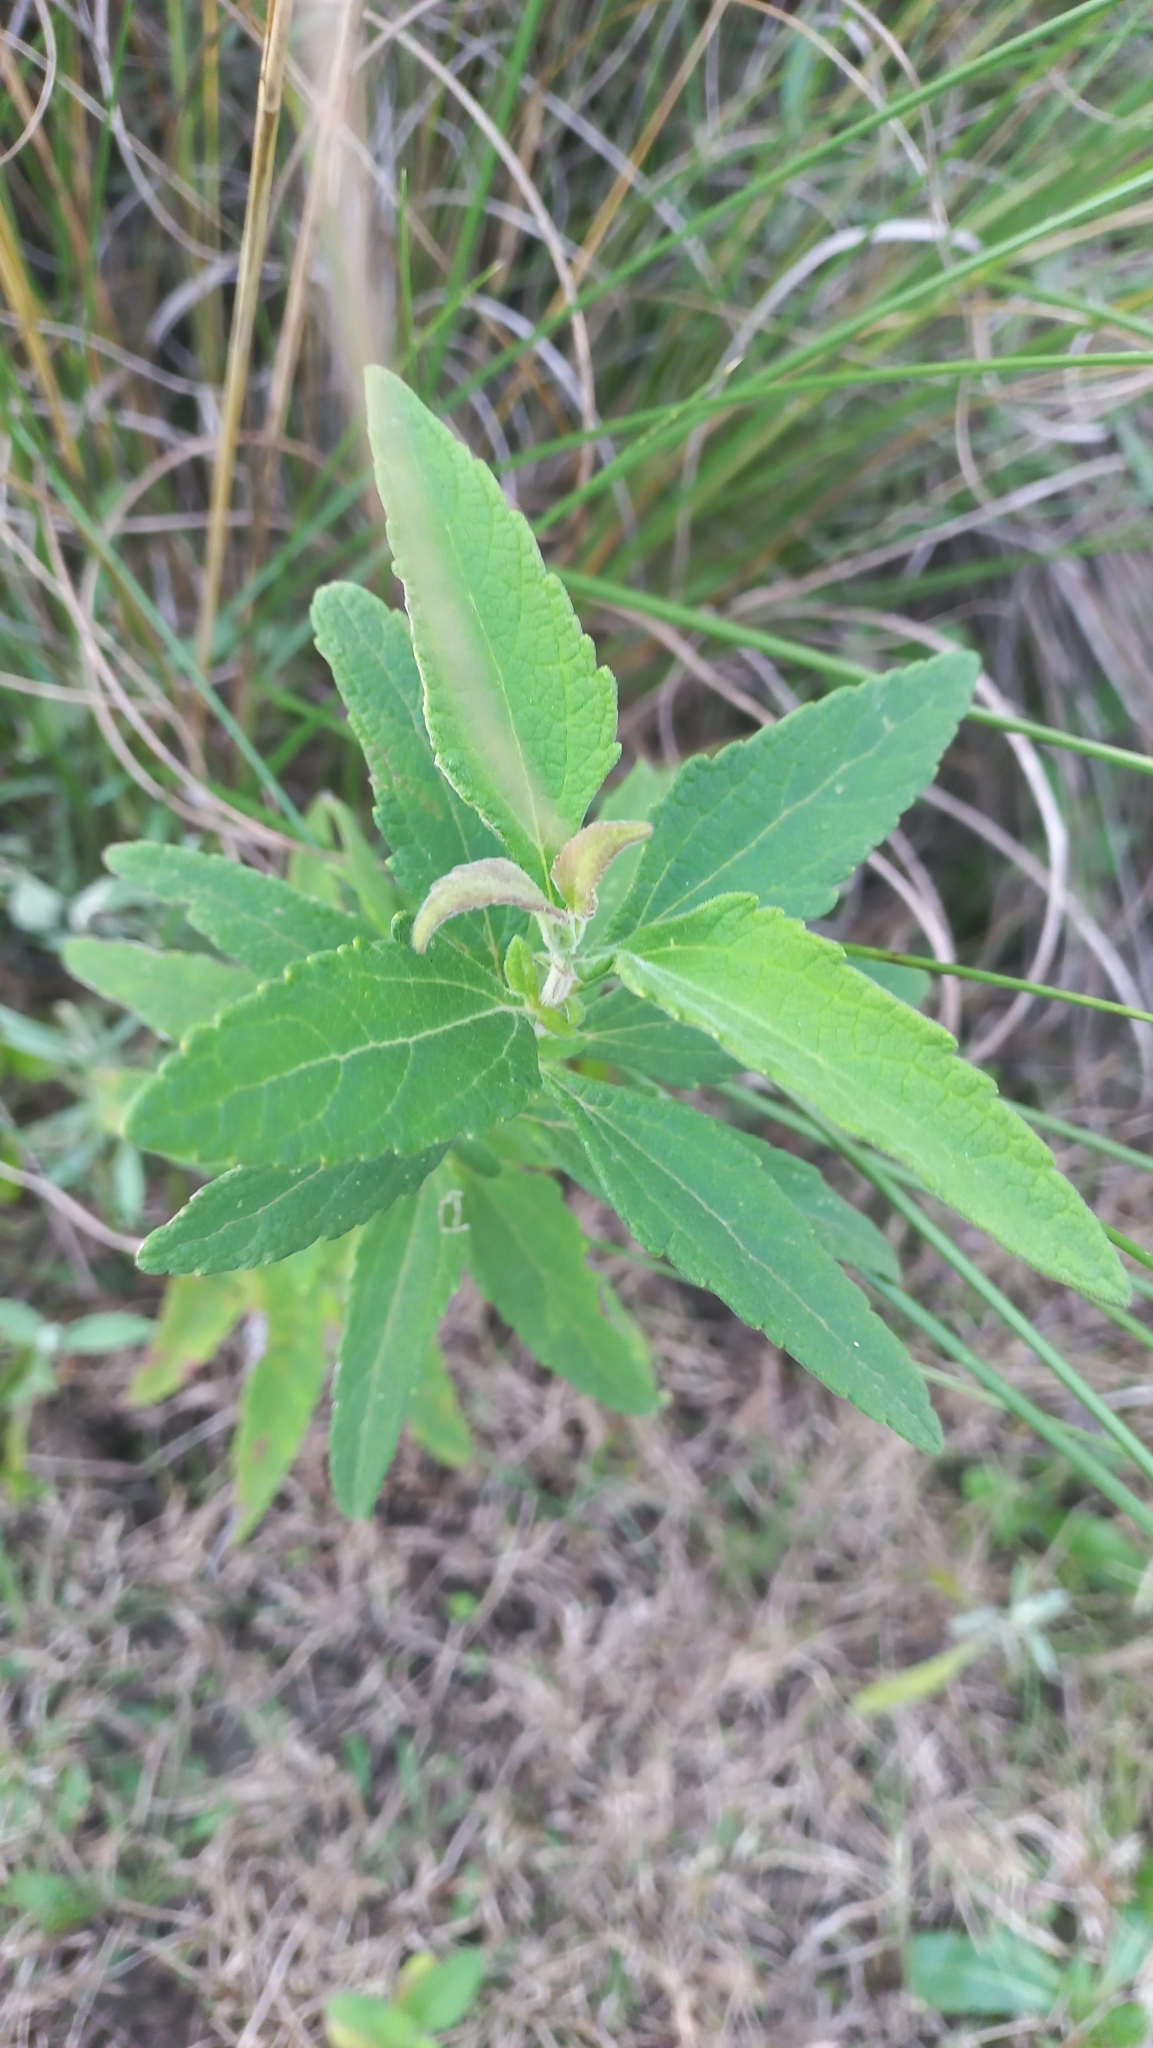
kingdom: Plantae
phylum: Tracheophyta
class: Magnoliopsida
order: Asterales
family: Asteraceae
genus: Austroeupatorium
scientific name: Austroeupatorium inulifolium
